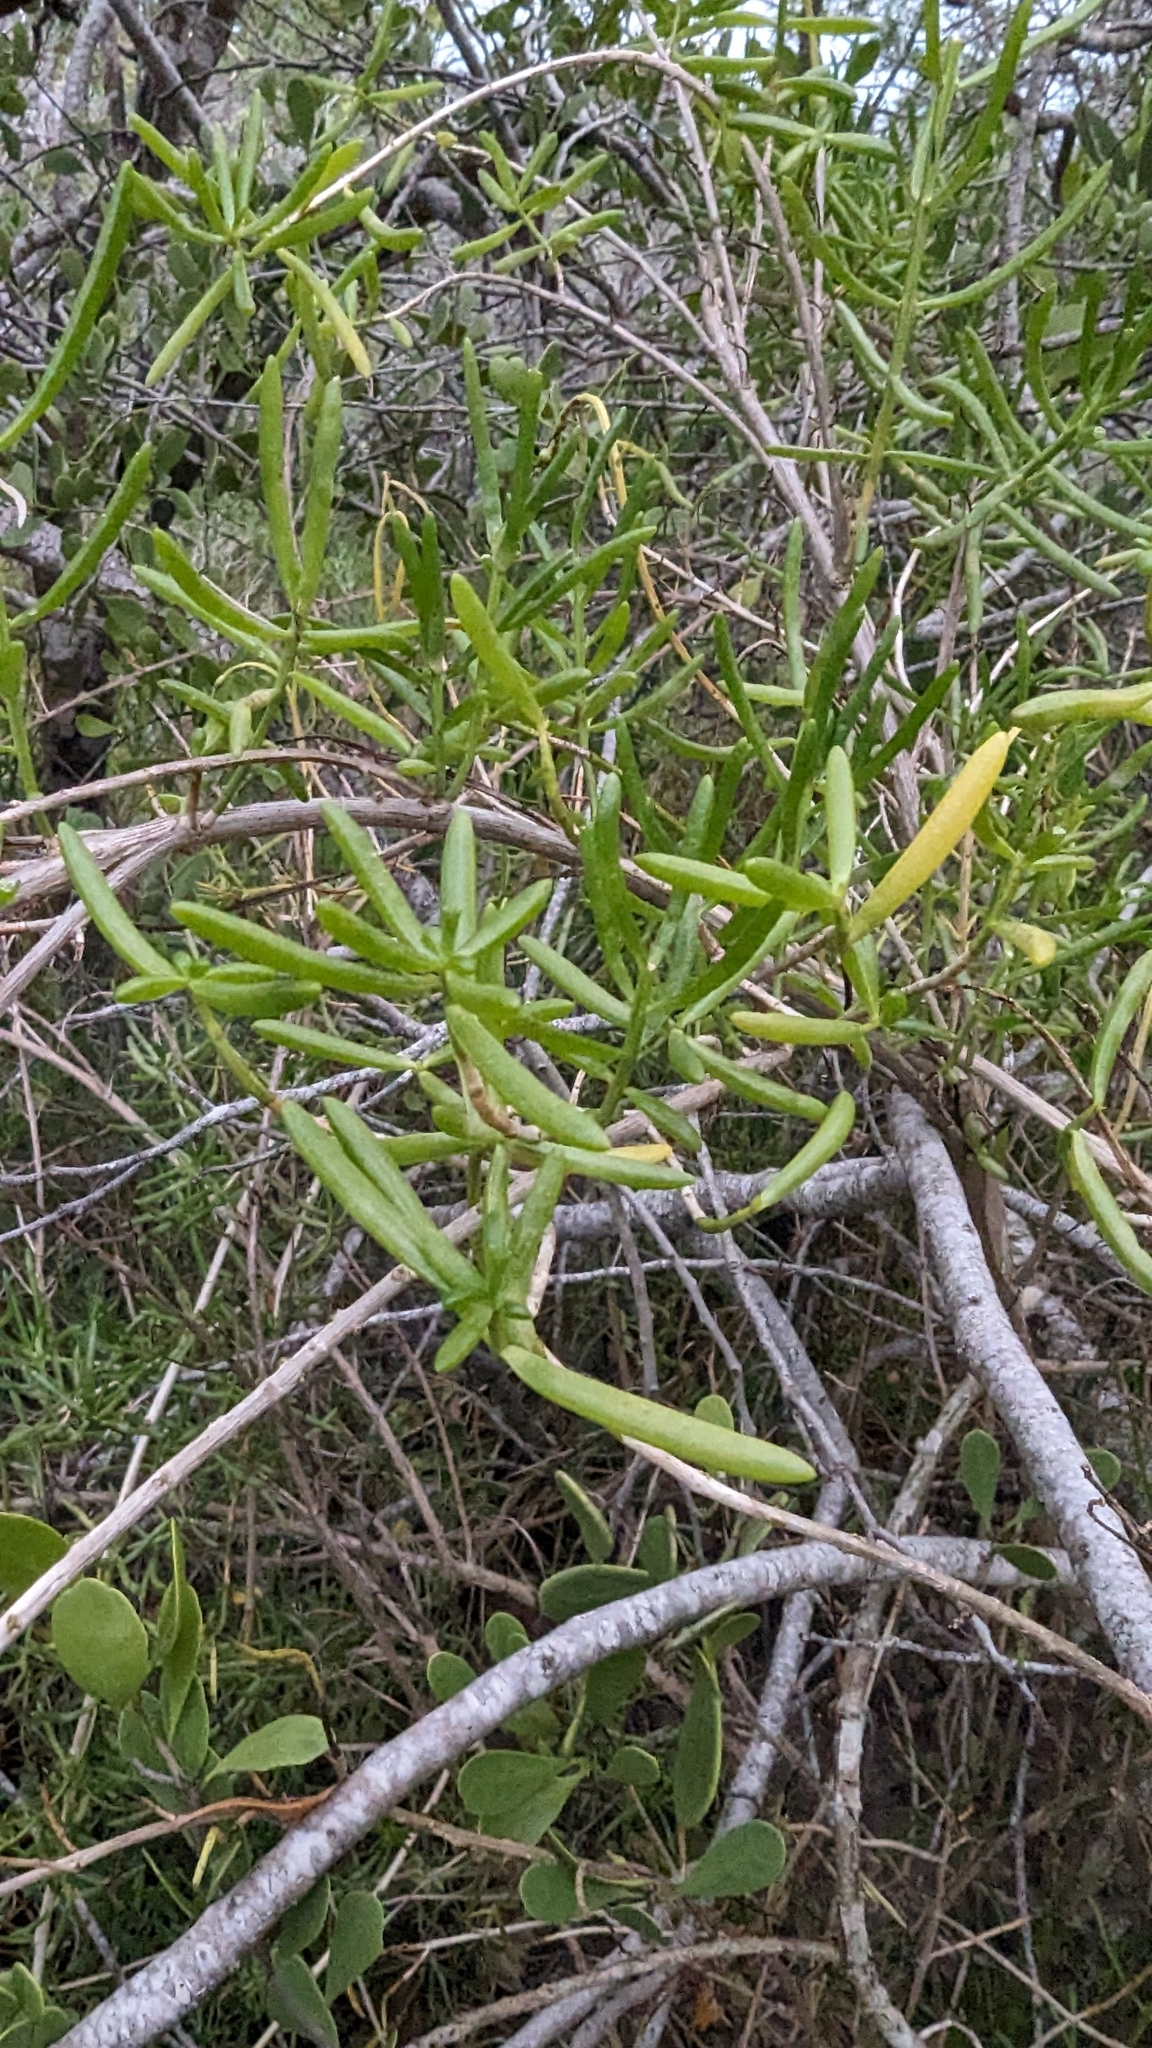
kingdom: Plantae
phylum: Tracheophyta
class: Magnoliopsida
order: Brassicales
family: Bataceae
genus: Batis
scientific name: Batis maritima
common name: Turtleweed
